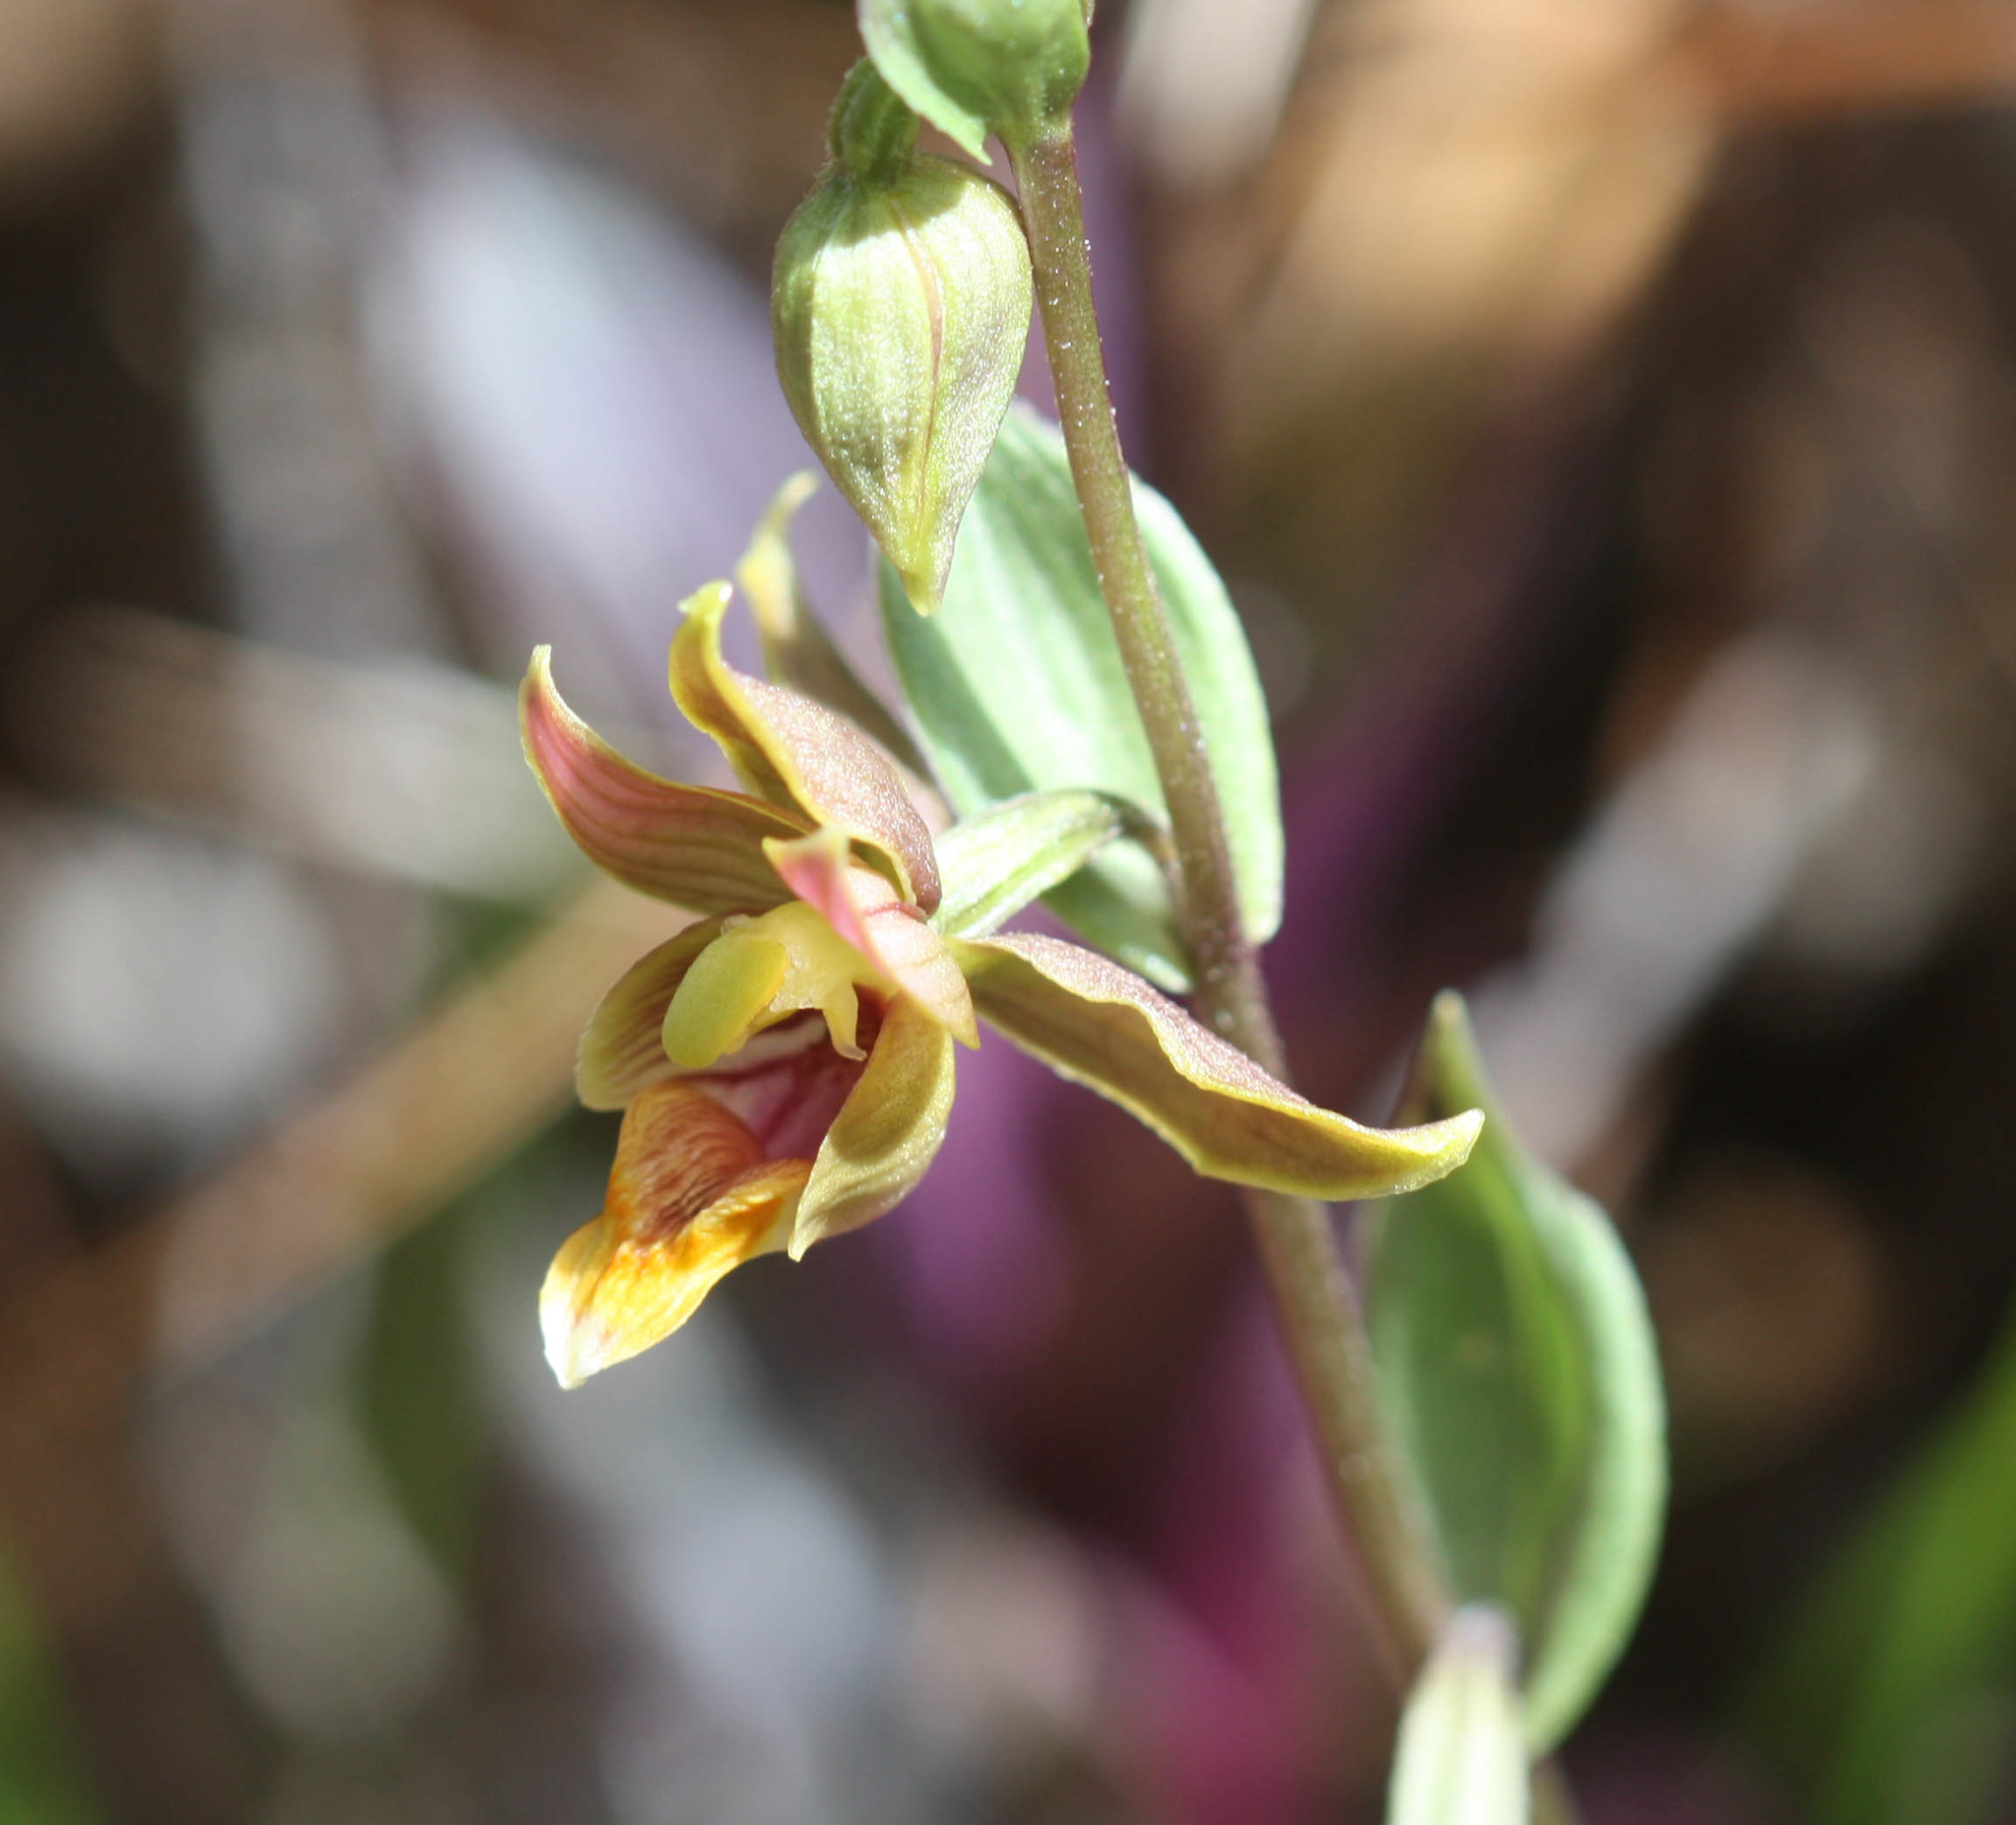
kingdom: Plantae
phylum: Tracheophyta
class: Liliopsida
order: Asparagales
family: Orchidaceae
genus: Epipactis
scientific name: Epipactis gigantea
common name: Chatterbox
